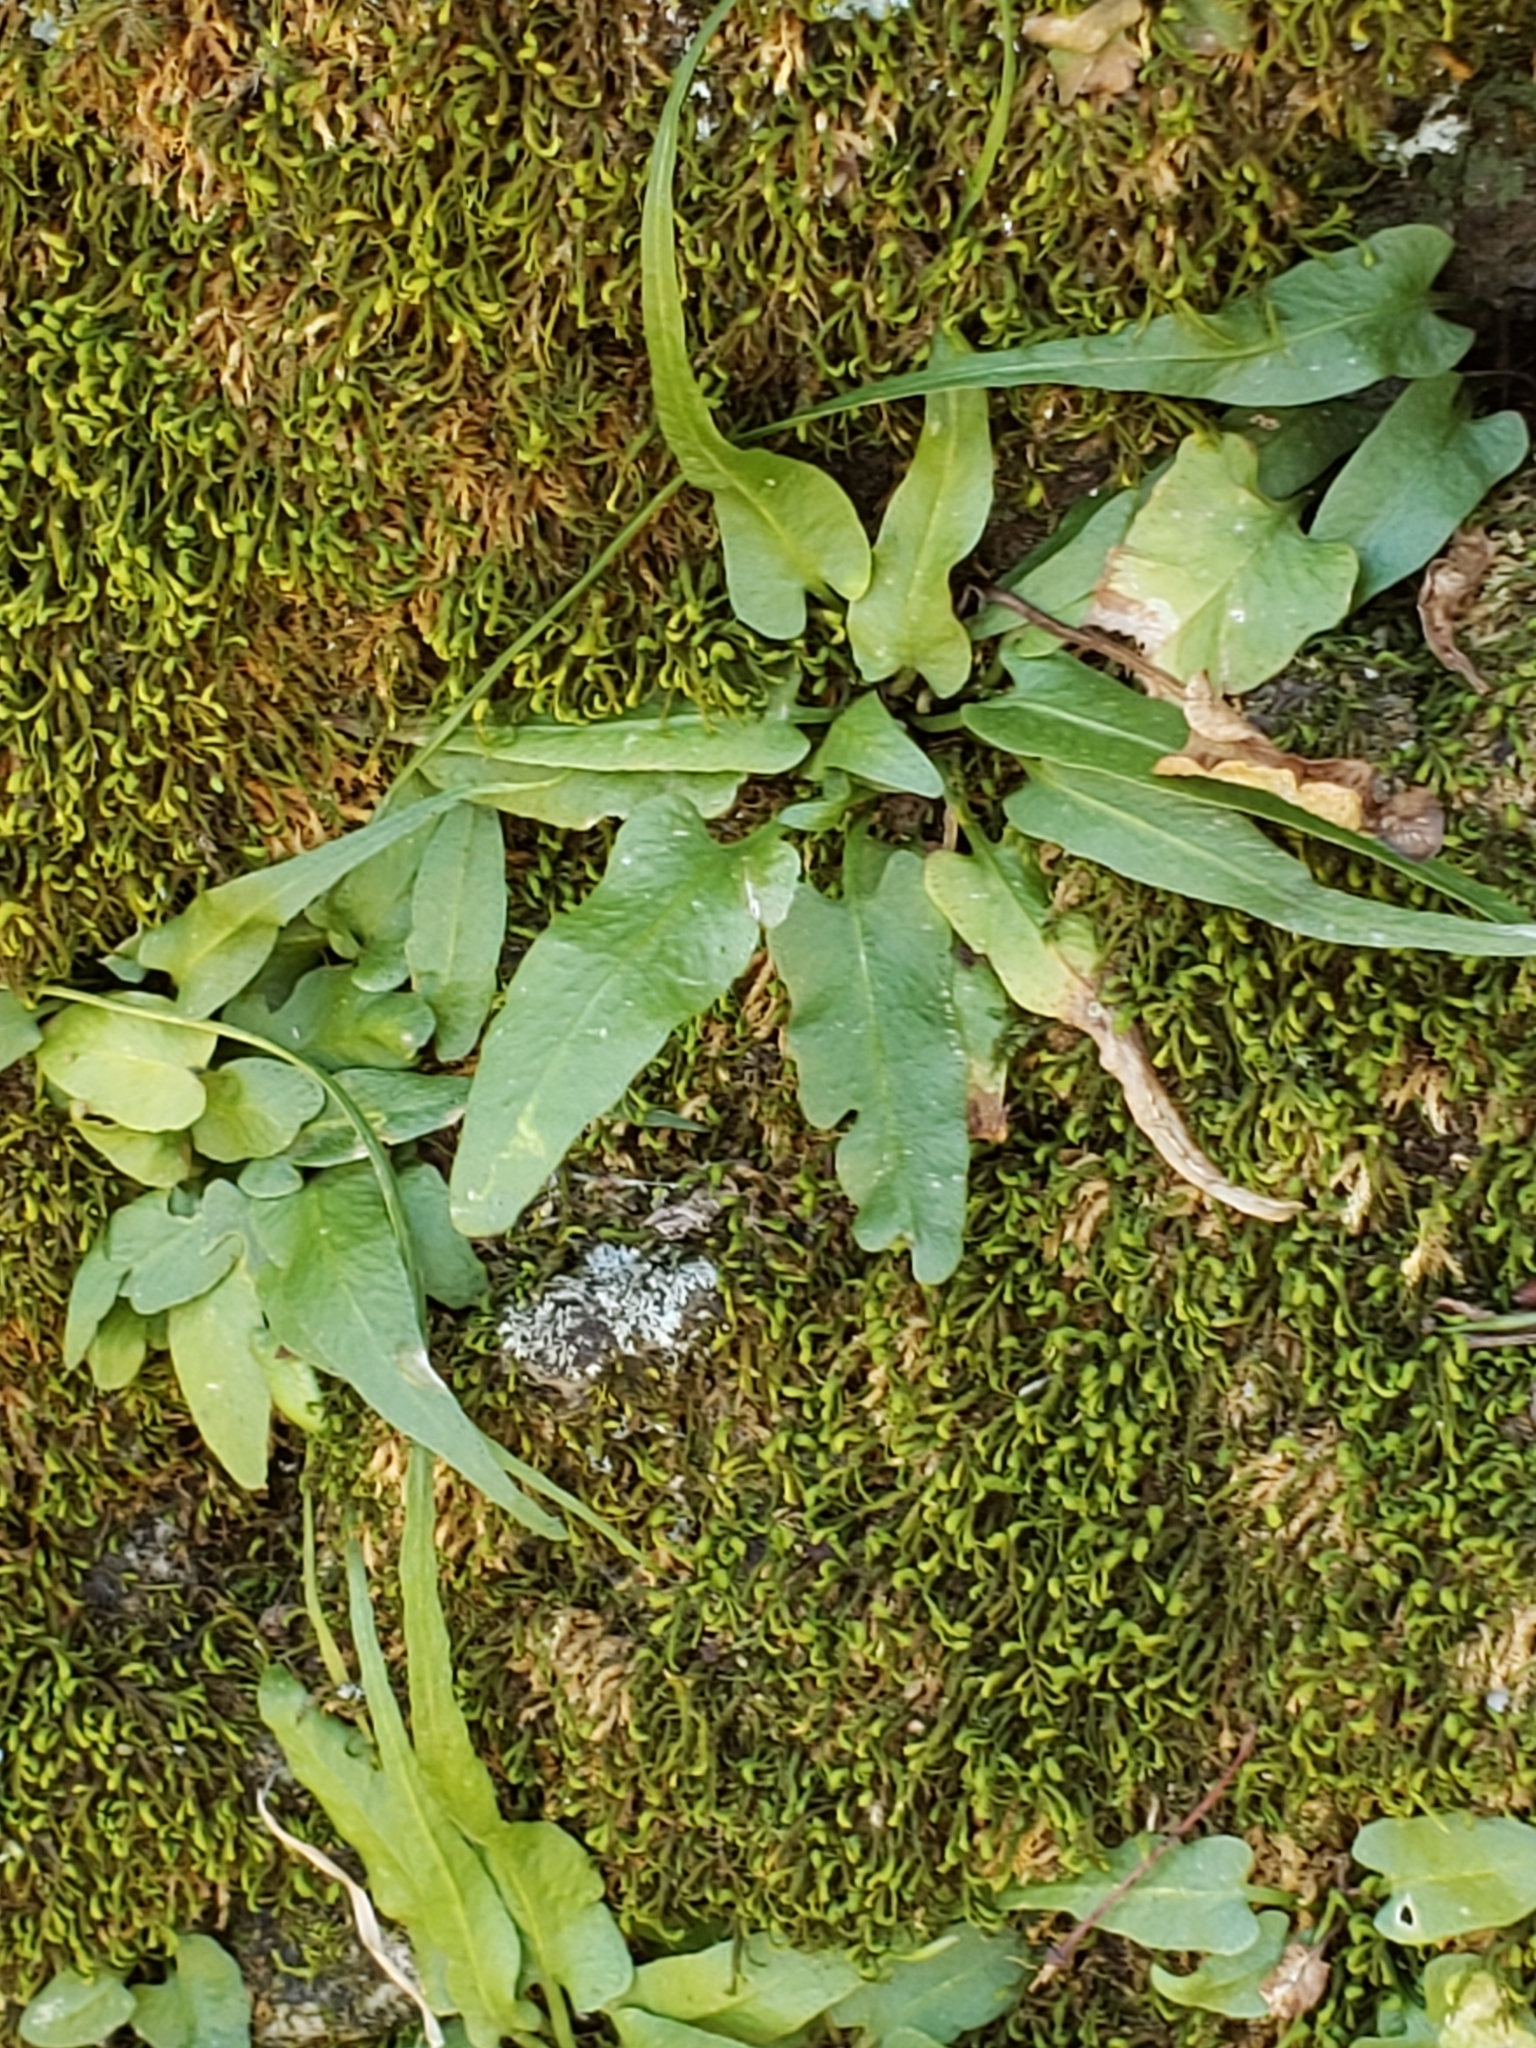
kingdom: Plantae
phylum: Tracheophyta
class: Polypodiopsida
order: Polypodiales
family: Aspleniaceae
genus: Asplenium
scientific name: Asplenium rhizophyllum
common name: Walking fern
